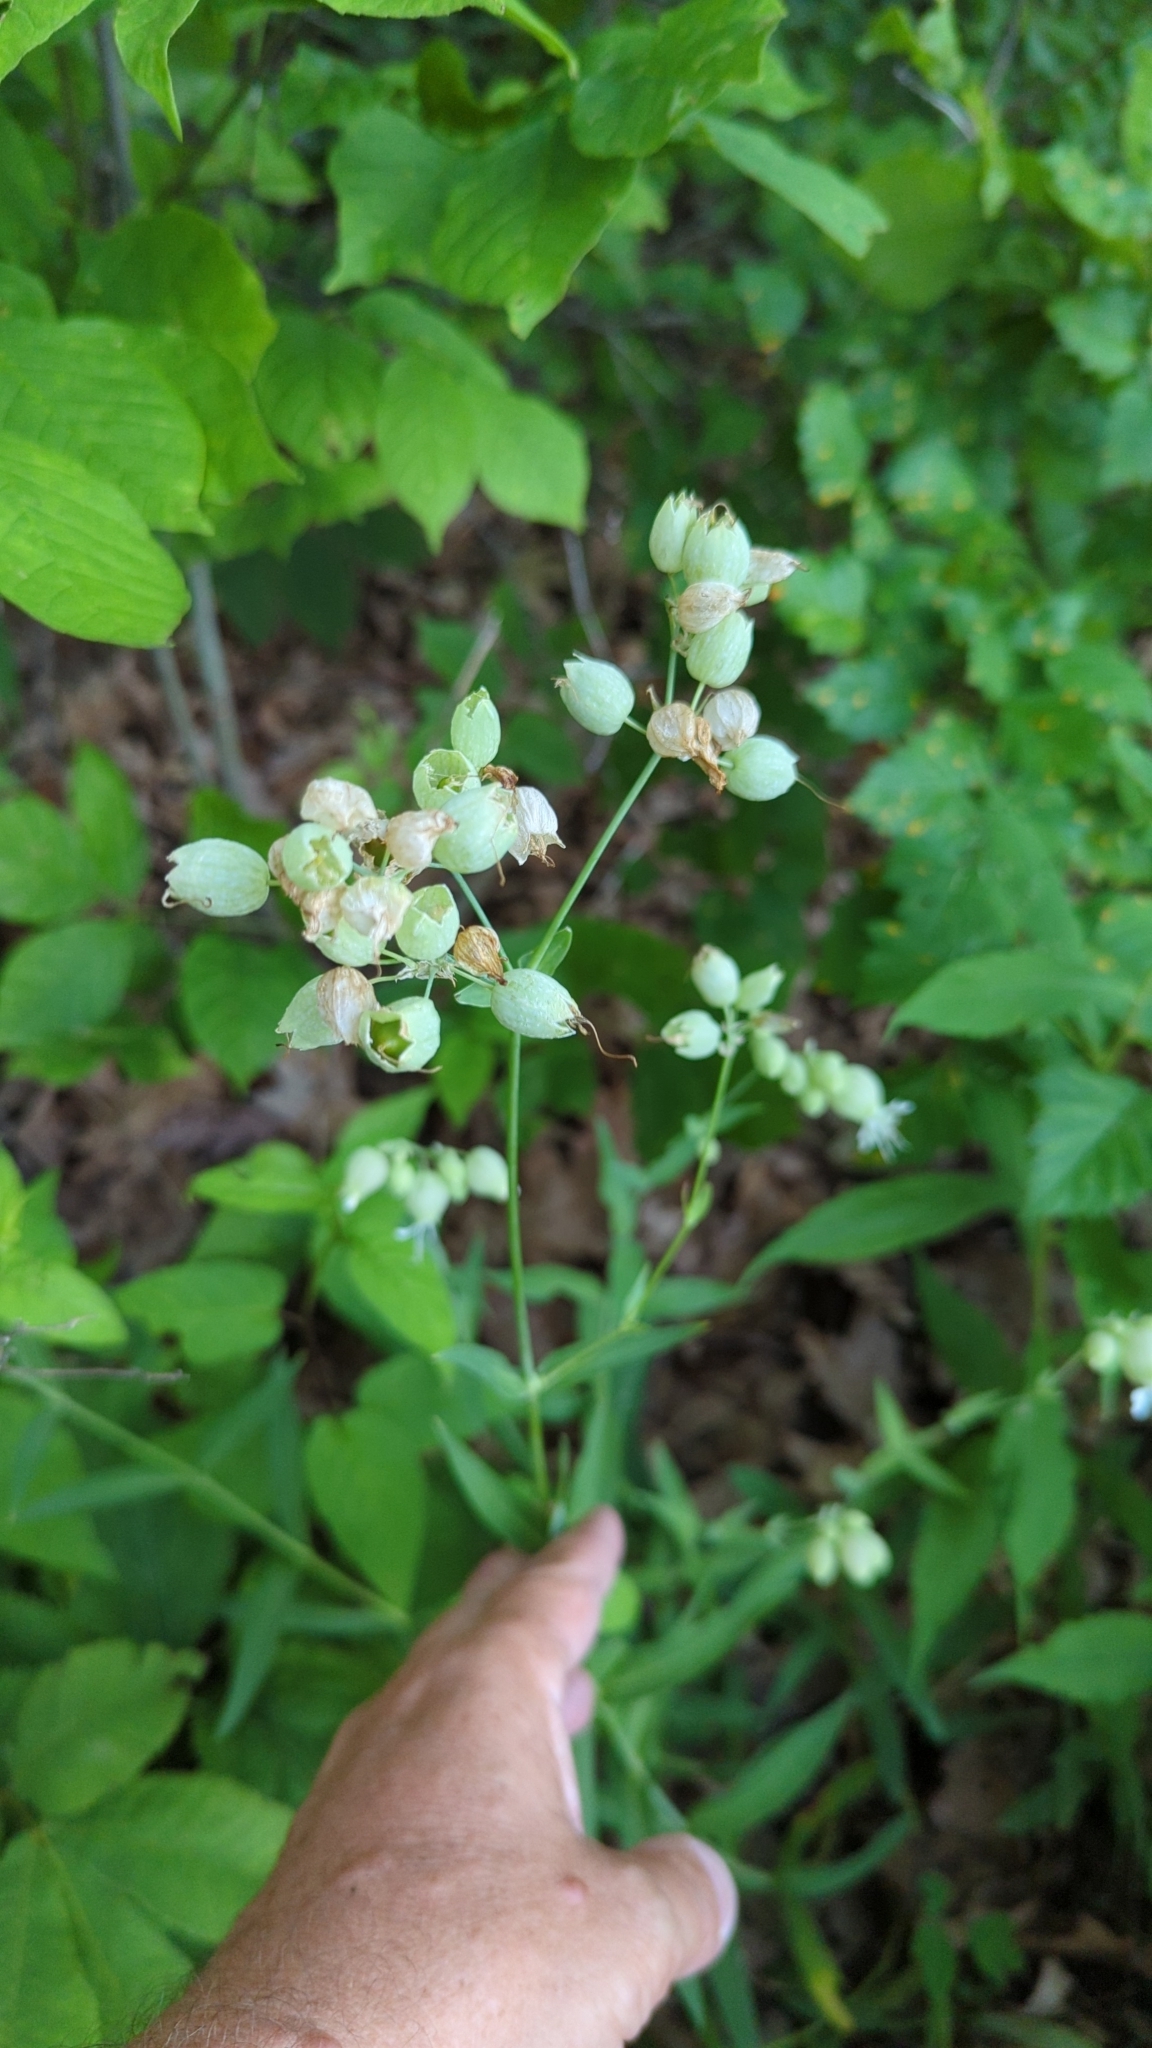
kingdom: Plantae
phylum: Tracheophyta
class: Magnoliopsida
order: Caryophyllales
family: Caryophyllaceae
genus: Silene
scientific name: Silene vulgaris
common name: Bladder campion
